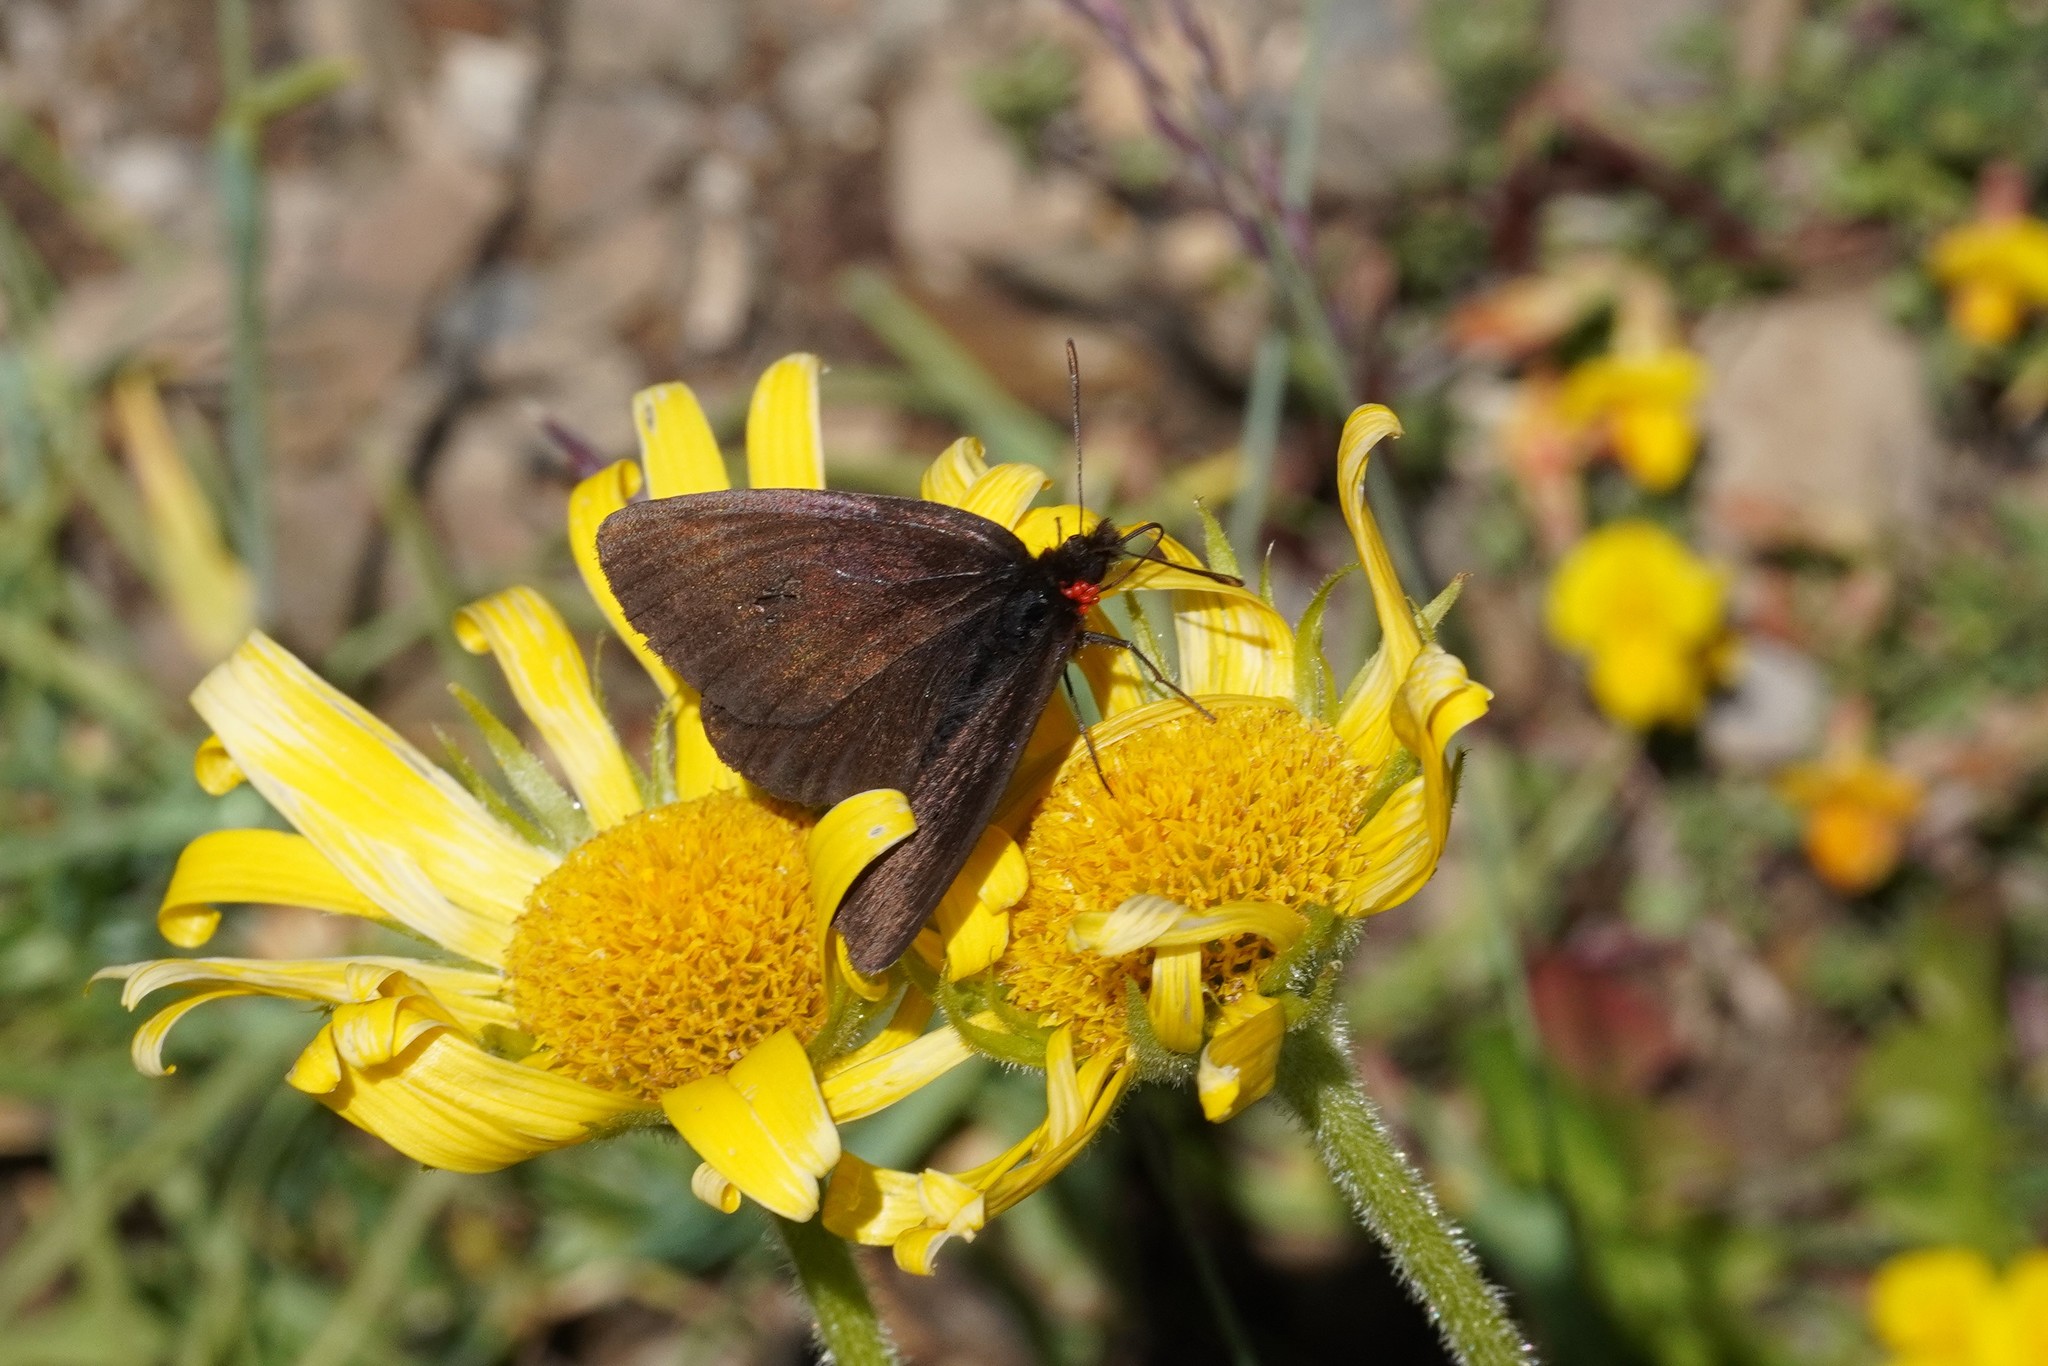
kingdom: Animalia
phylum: Arthropoda
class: Insecta
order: Lepidoptera
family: Nymphalidae
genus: Erebia
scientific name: Erebia pluto
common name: Sooty ringlet
